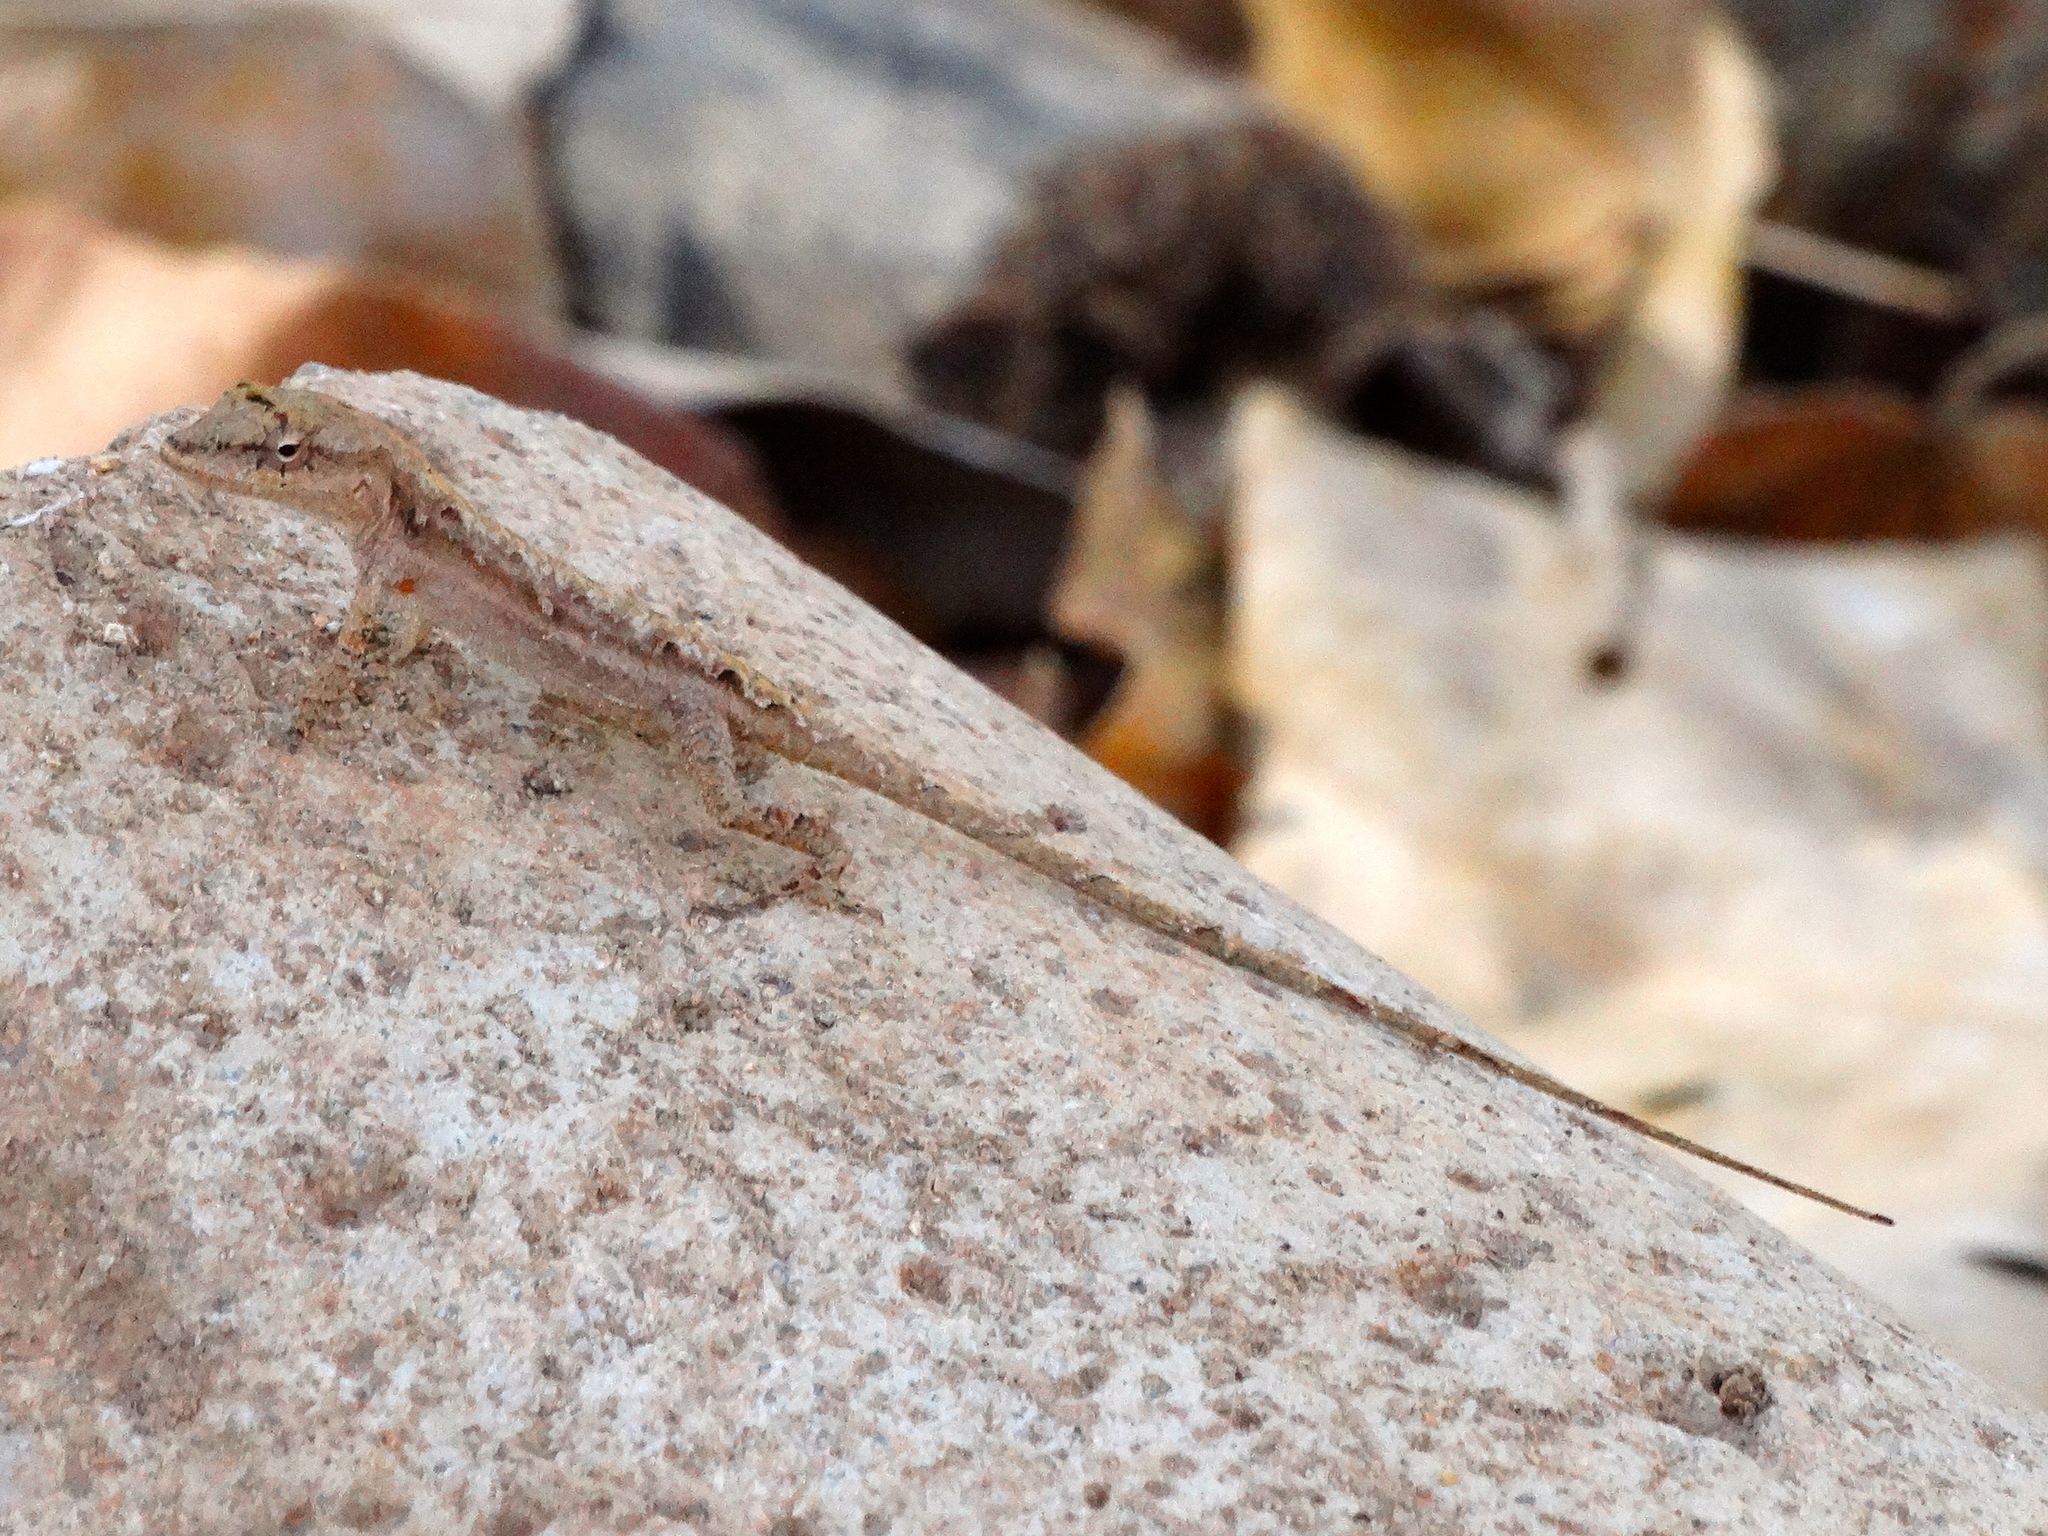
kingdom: Animalia
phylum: Chordata
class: Squamata
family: Dactyloidae
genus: Anolis
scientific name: Anolis nebulosus
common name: Clouded anole
